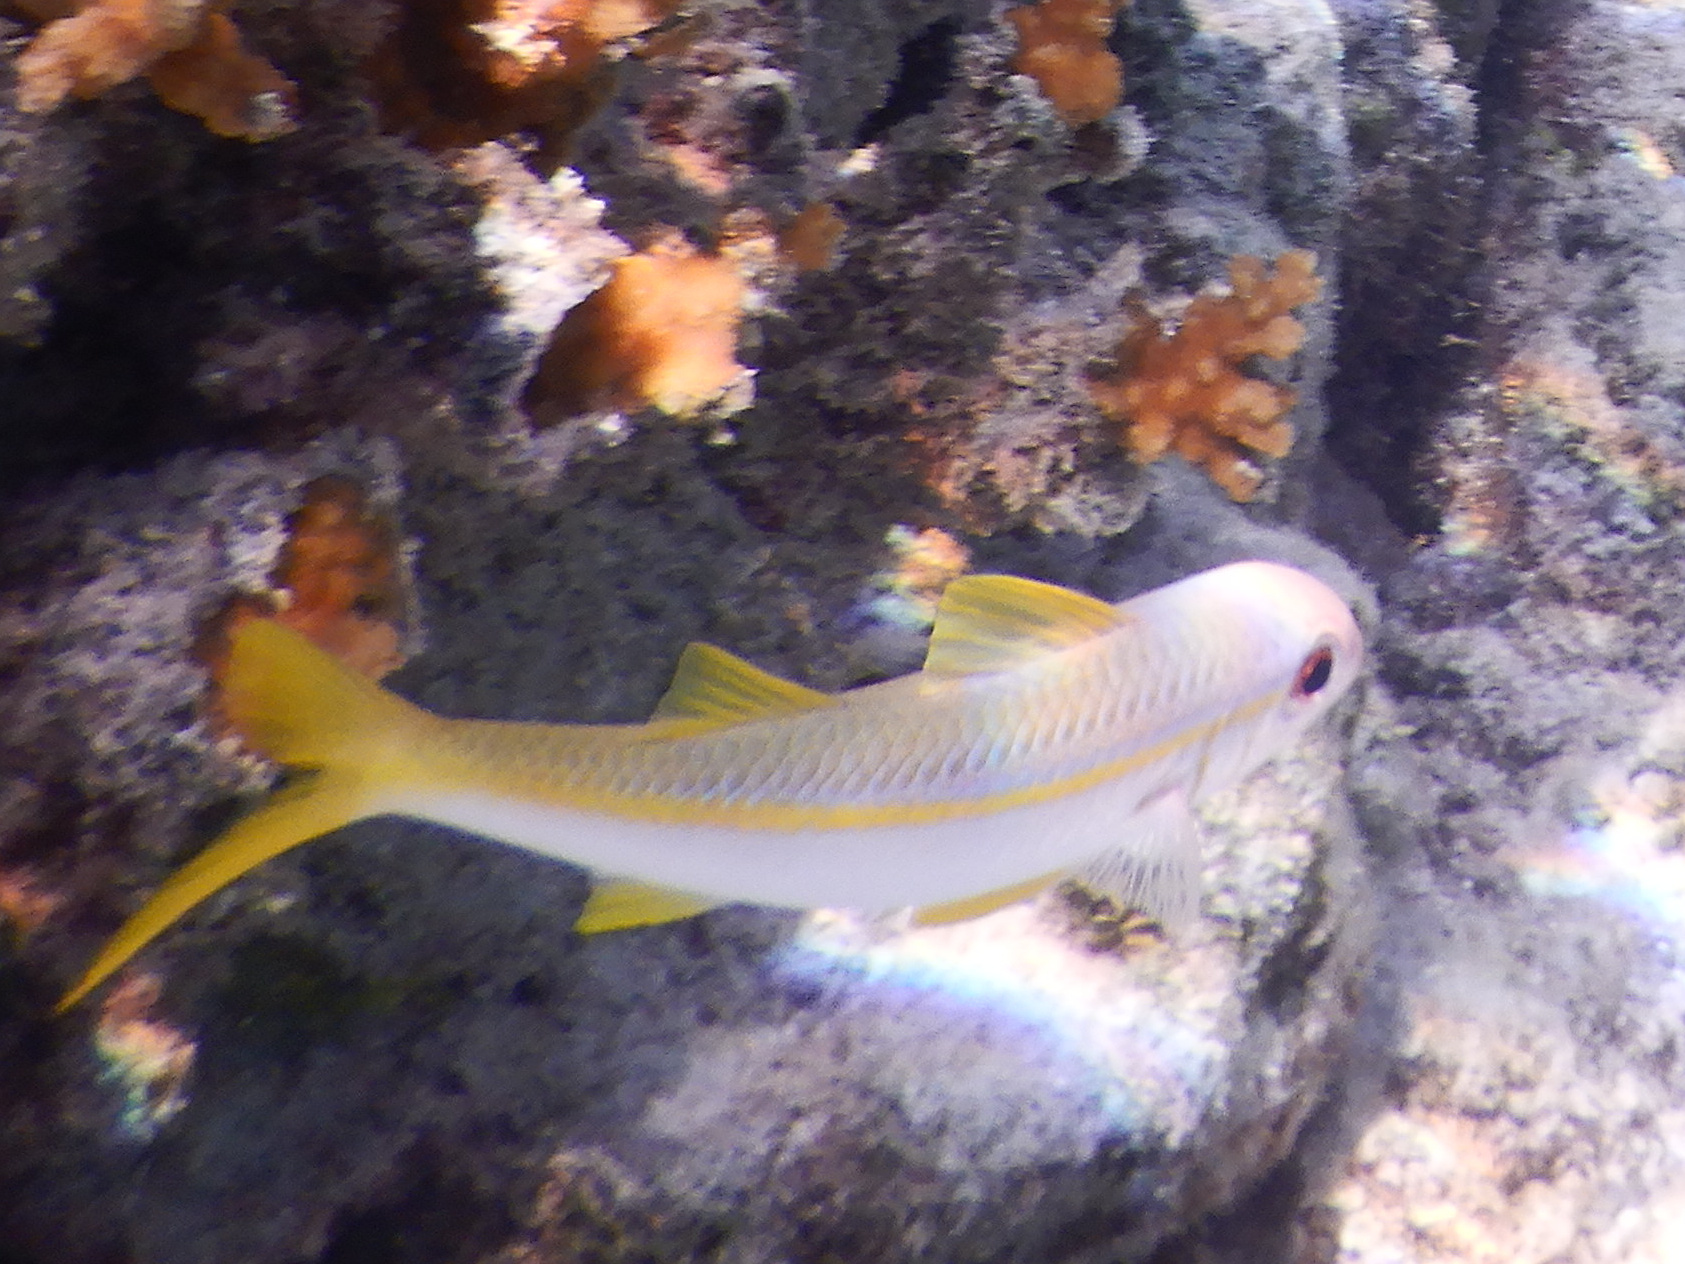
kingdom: Animalia
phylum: Chordata
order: Perciformes
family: Mullidae
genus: Mulloidichthys
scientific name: Mulloidichthys vanicolensis
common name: Yellowfin goatfish
